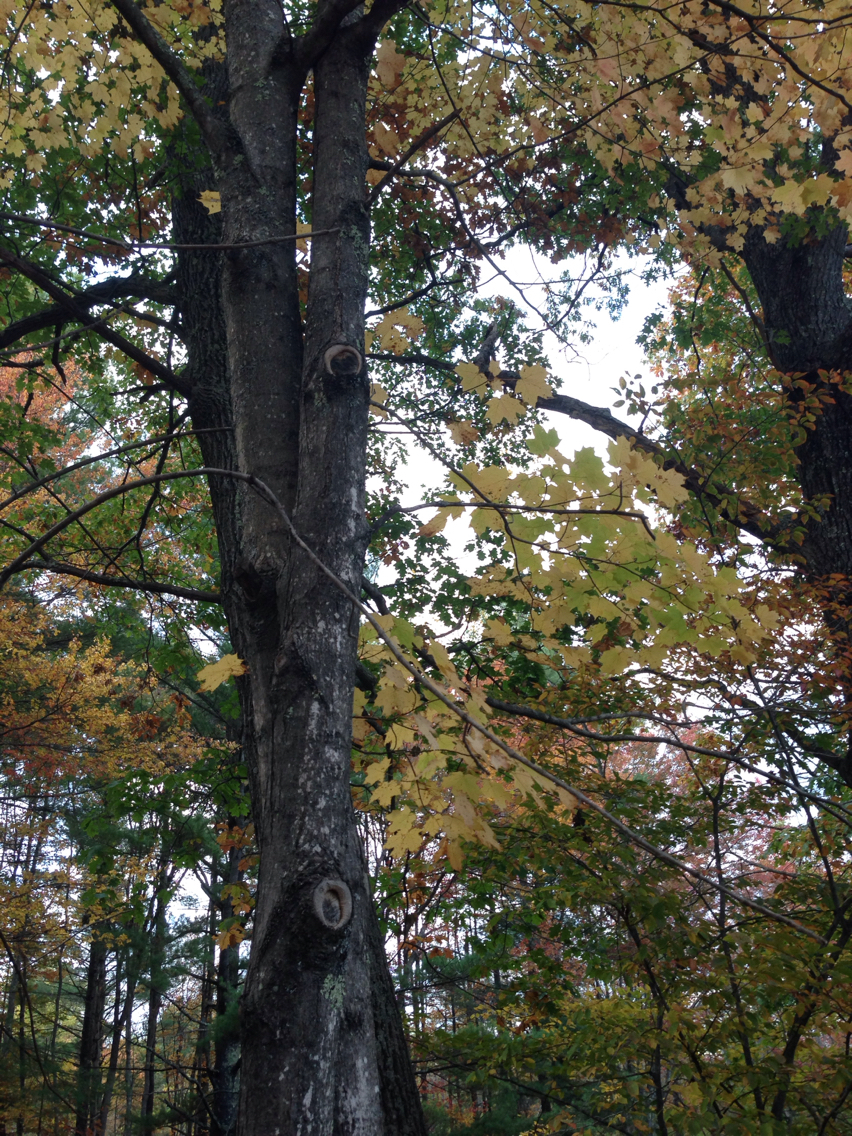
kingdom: Plantae
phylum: Tracheophyta
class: Magnoliopsida
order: Sapindales
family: Sapindaceae
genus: Acer
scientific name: Acer saccharum
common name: Sugar maple
